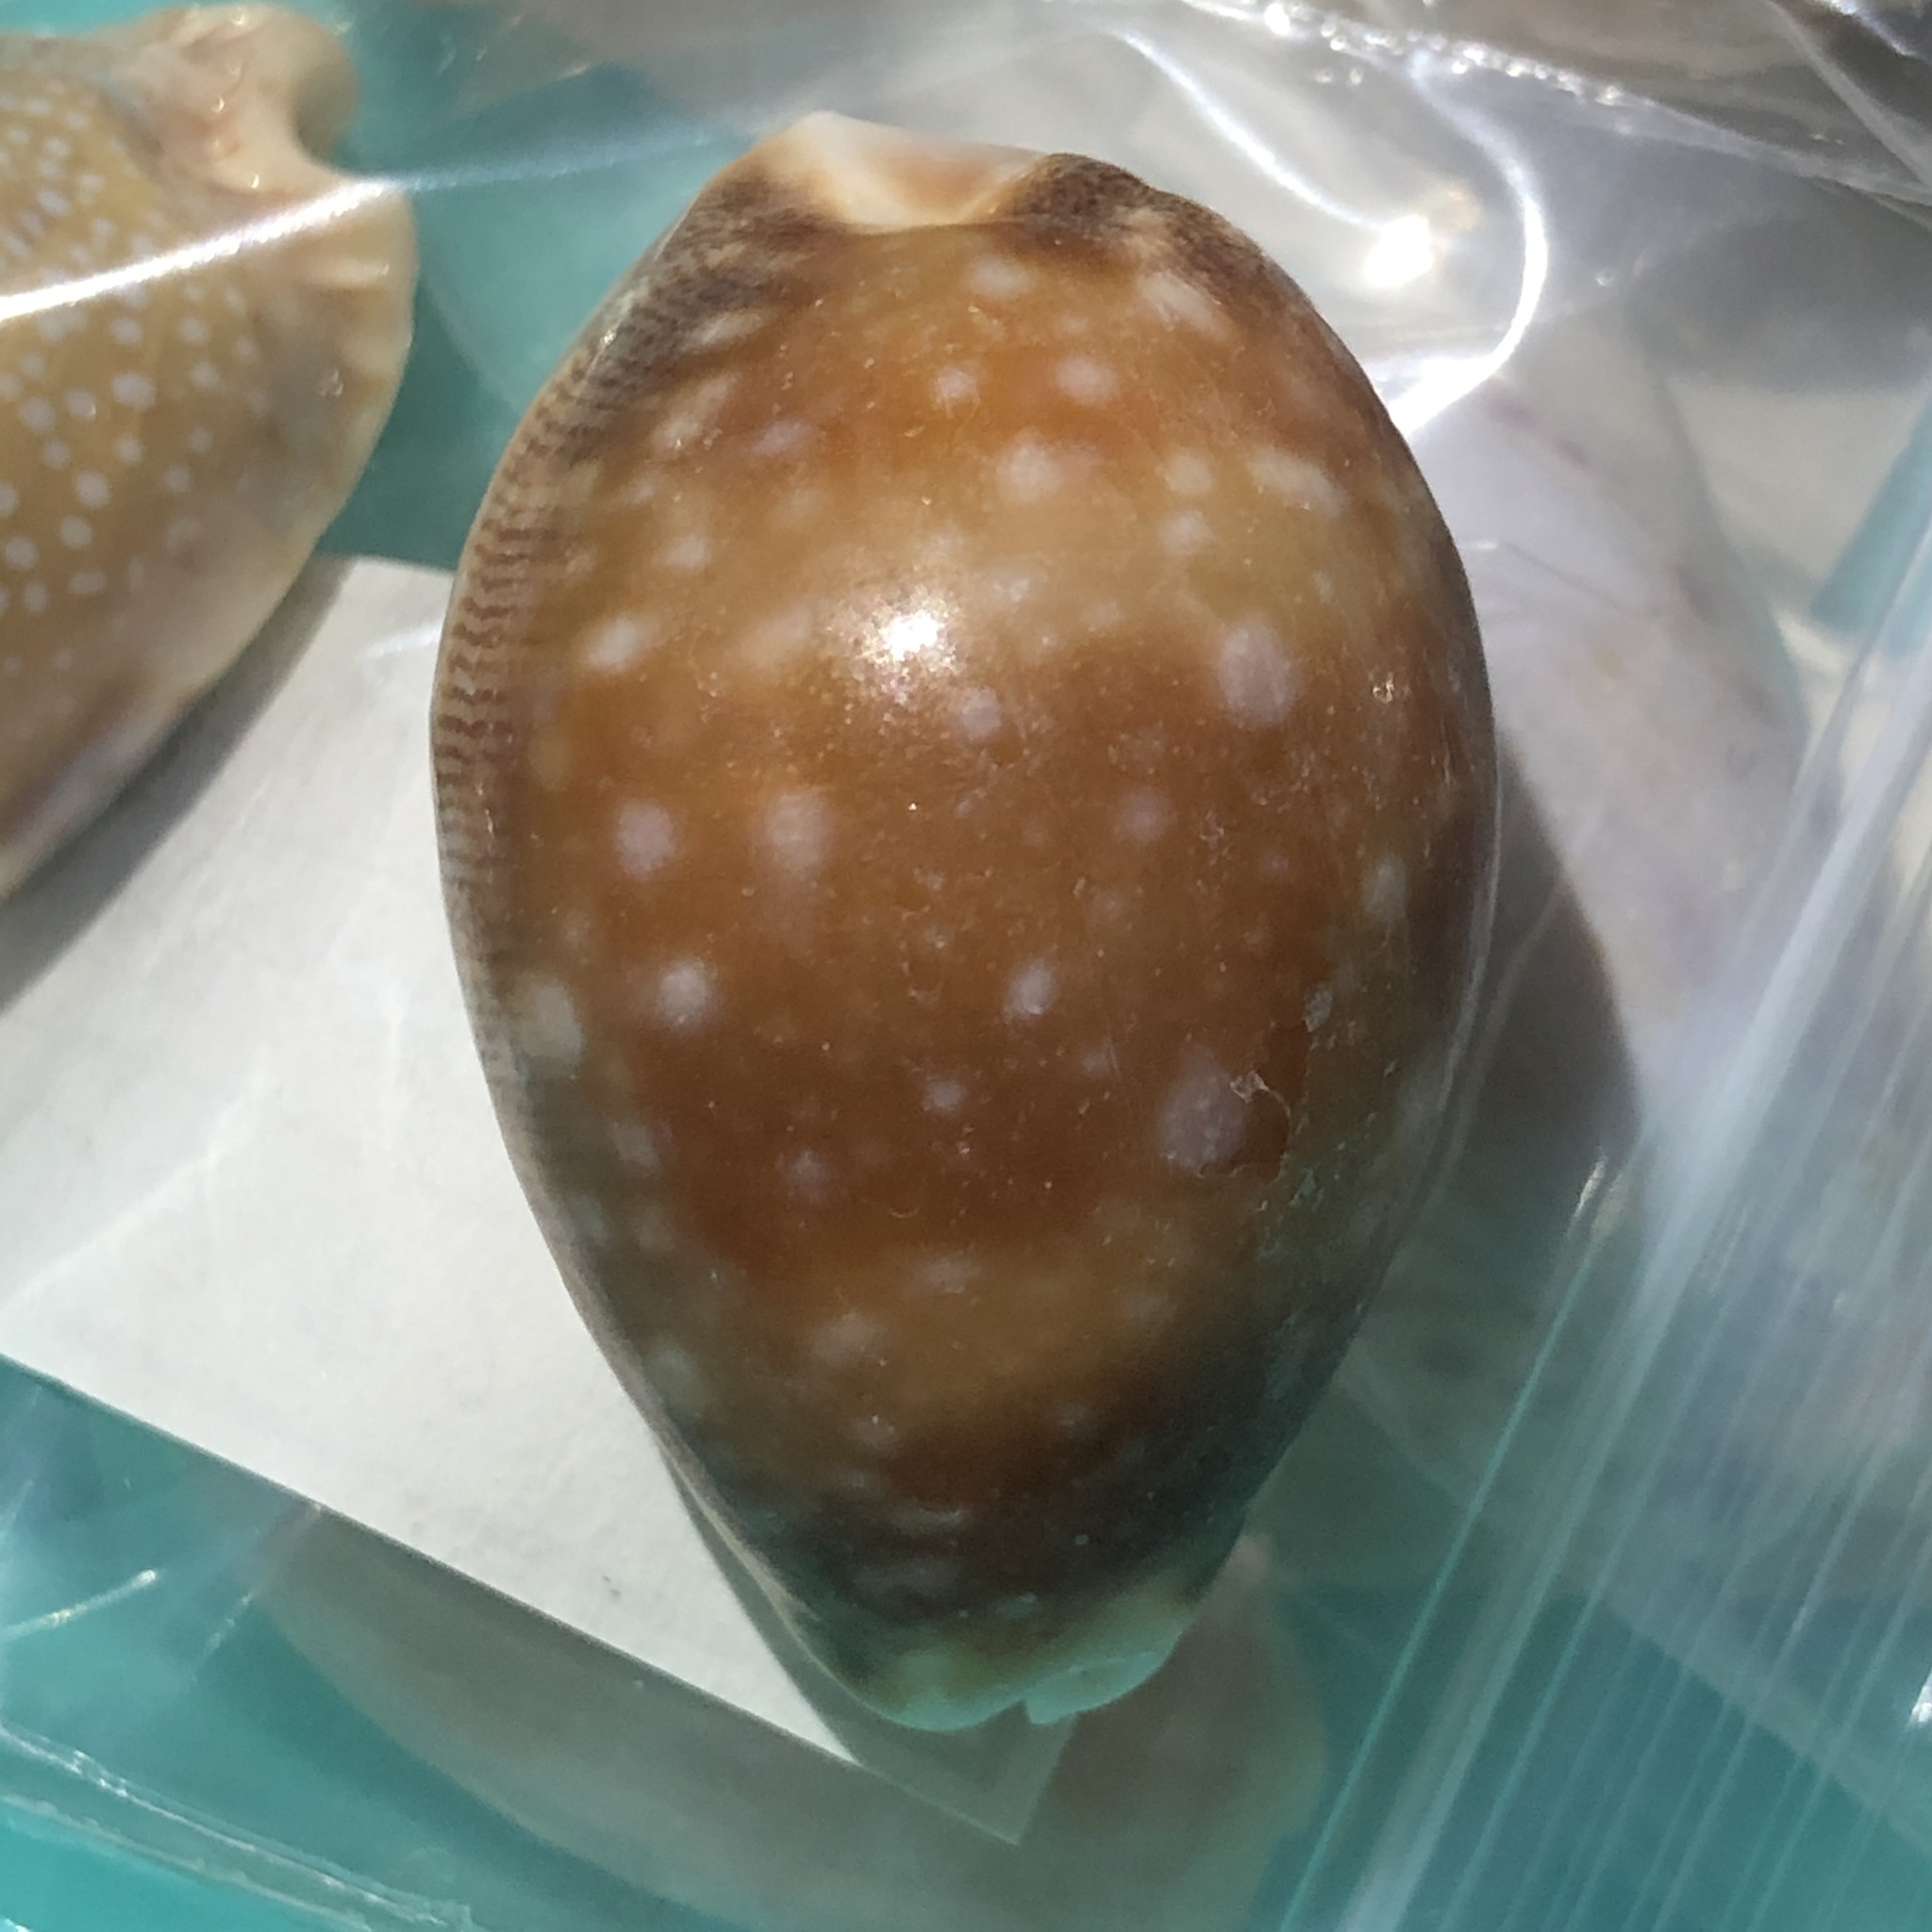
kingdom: Animalia
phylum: Mollusca
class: Gastropoda
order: Littorinimorpha
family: Cypraeidae
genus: Lyncina
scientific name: Lyncina vitellus
